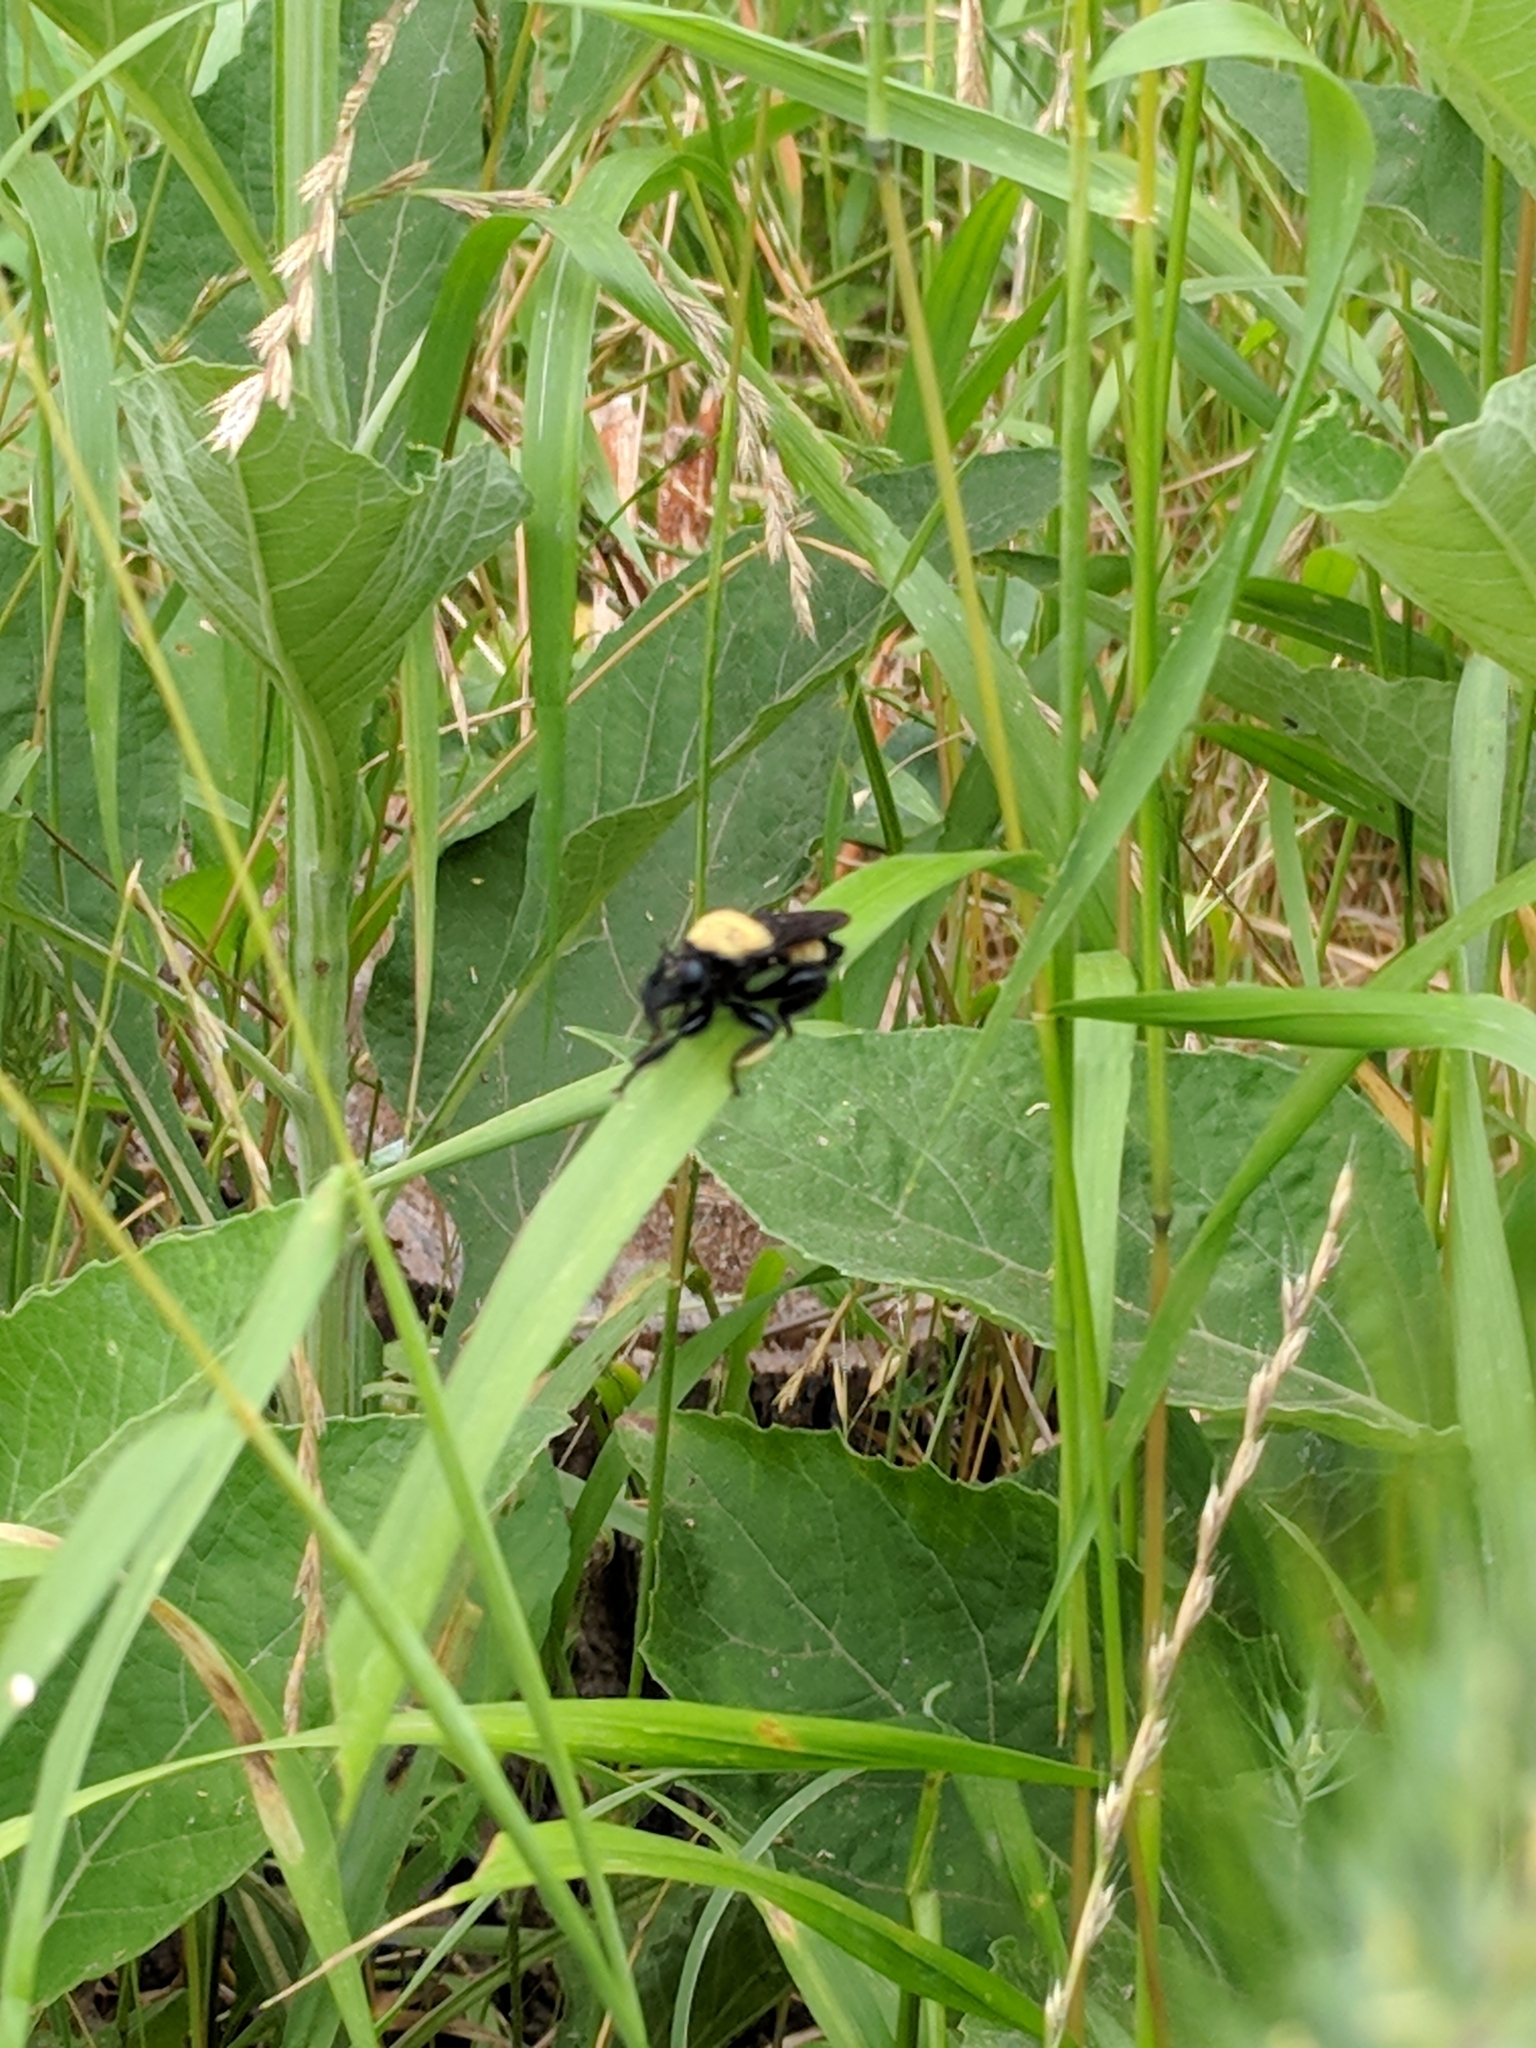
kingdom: Animalia
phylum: Arthropoda
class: Insecta
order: Diptera
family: Asilidae
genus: Laphria
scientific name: Laphria macquarti
